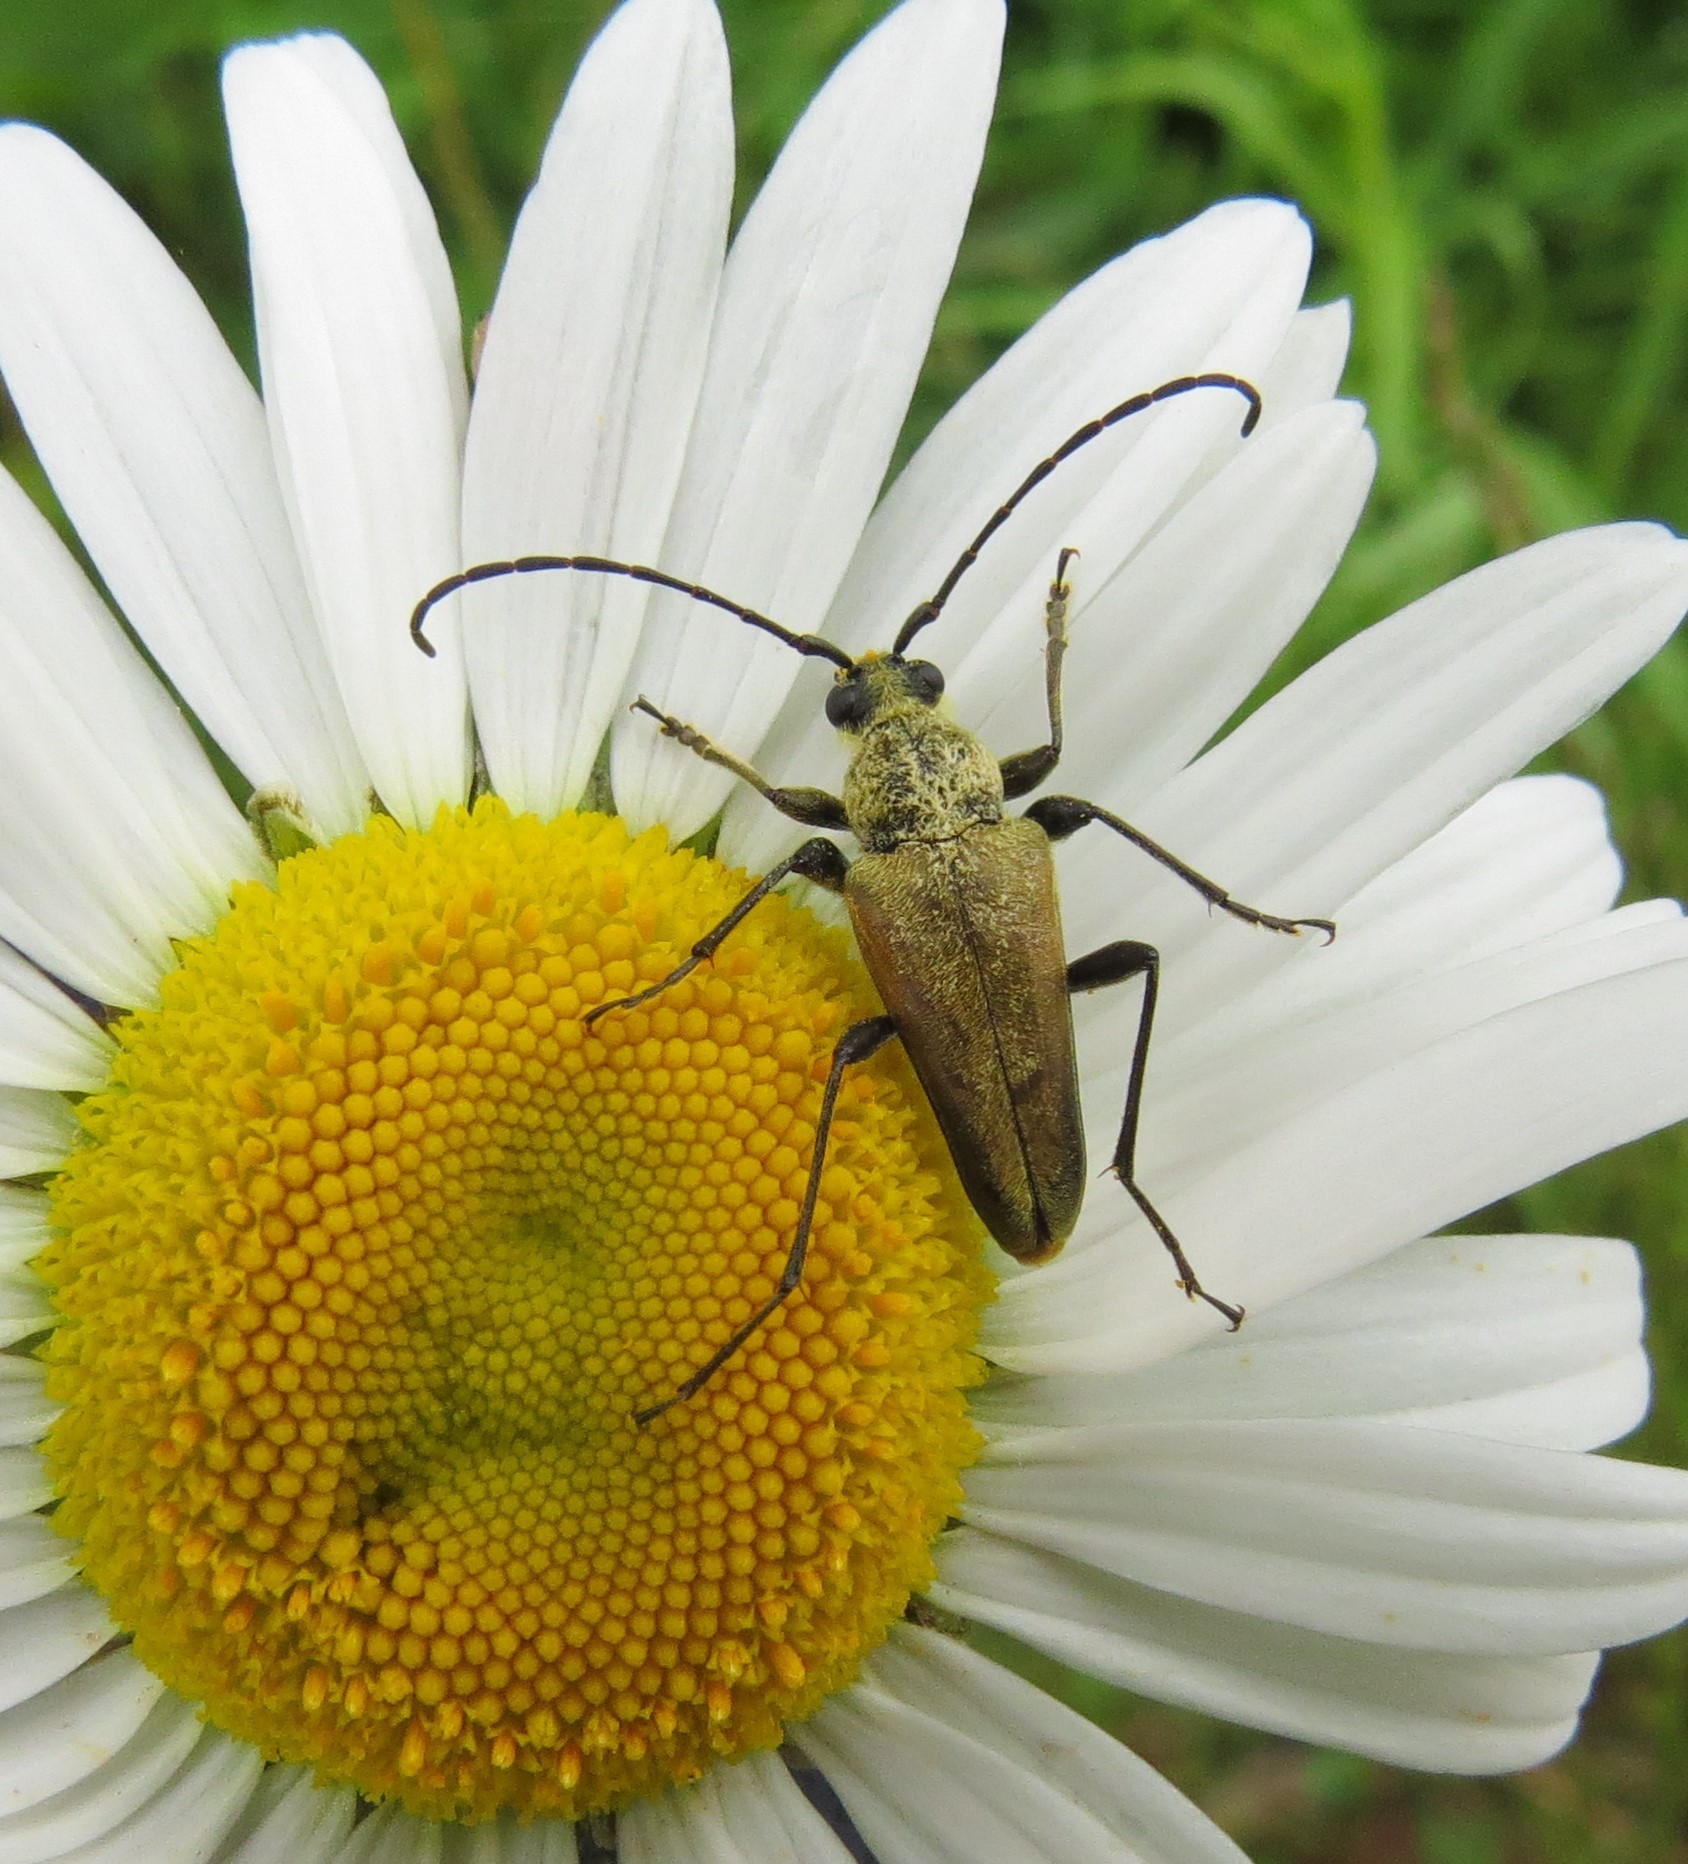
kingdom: Animalia
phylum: Arthropoda
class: Insecta
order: Coleoptera
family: Cerambycidae
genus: Cosmosalia
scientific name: Cosmosalia chrysocoma
